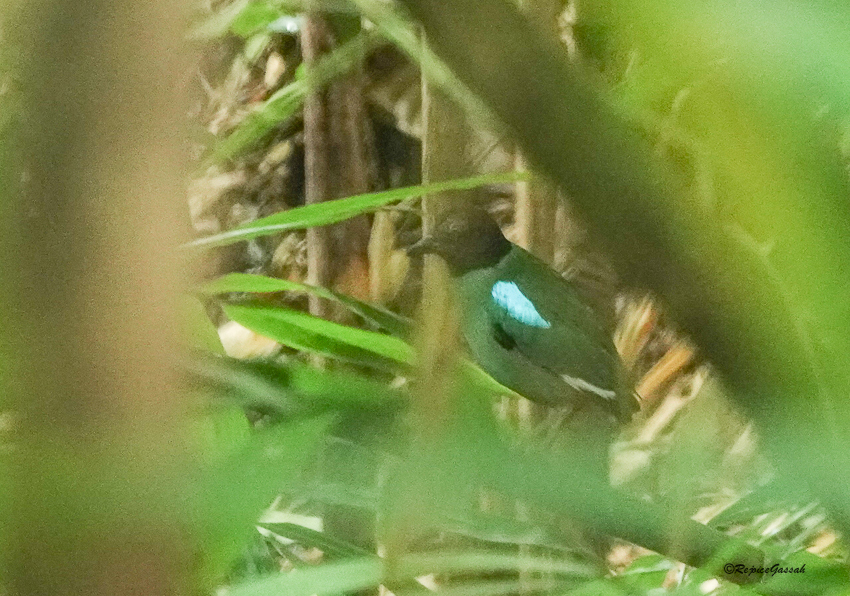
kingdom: Animalia
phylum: Chordata
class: Aves
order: Passeriformes
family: Pittidae
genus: Pitta
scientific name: Pitta sordida
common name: Hooded pitta
